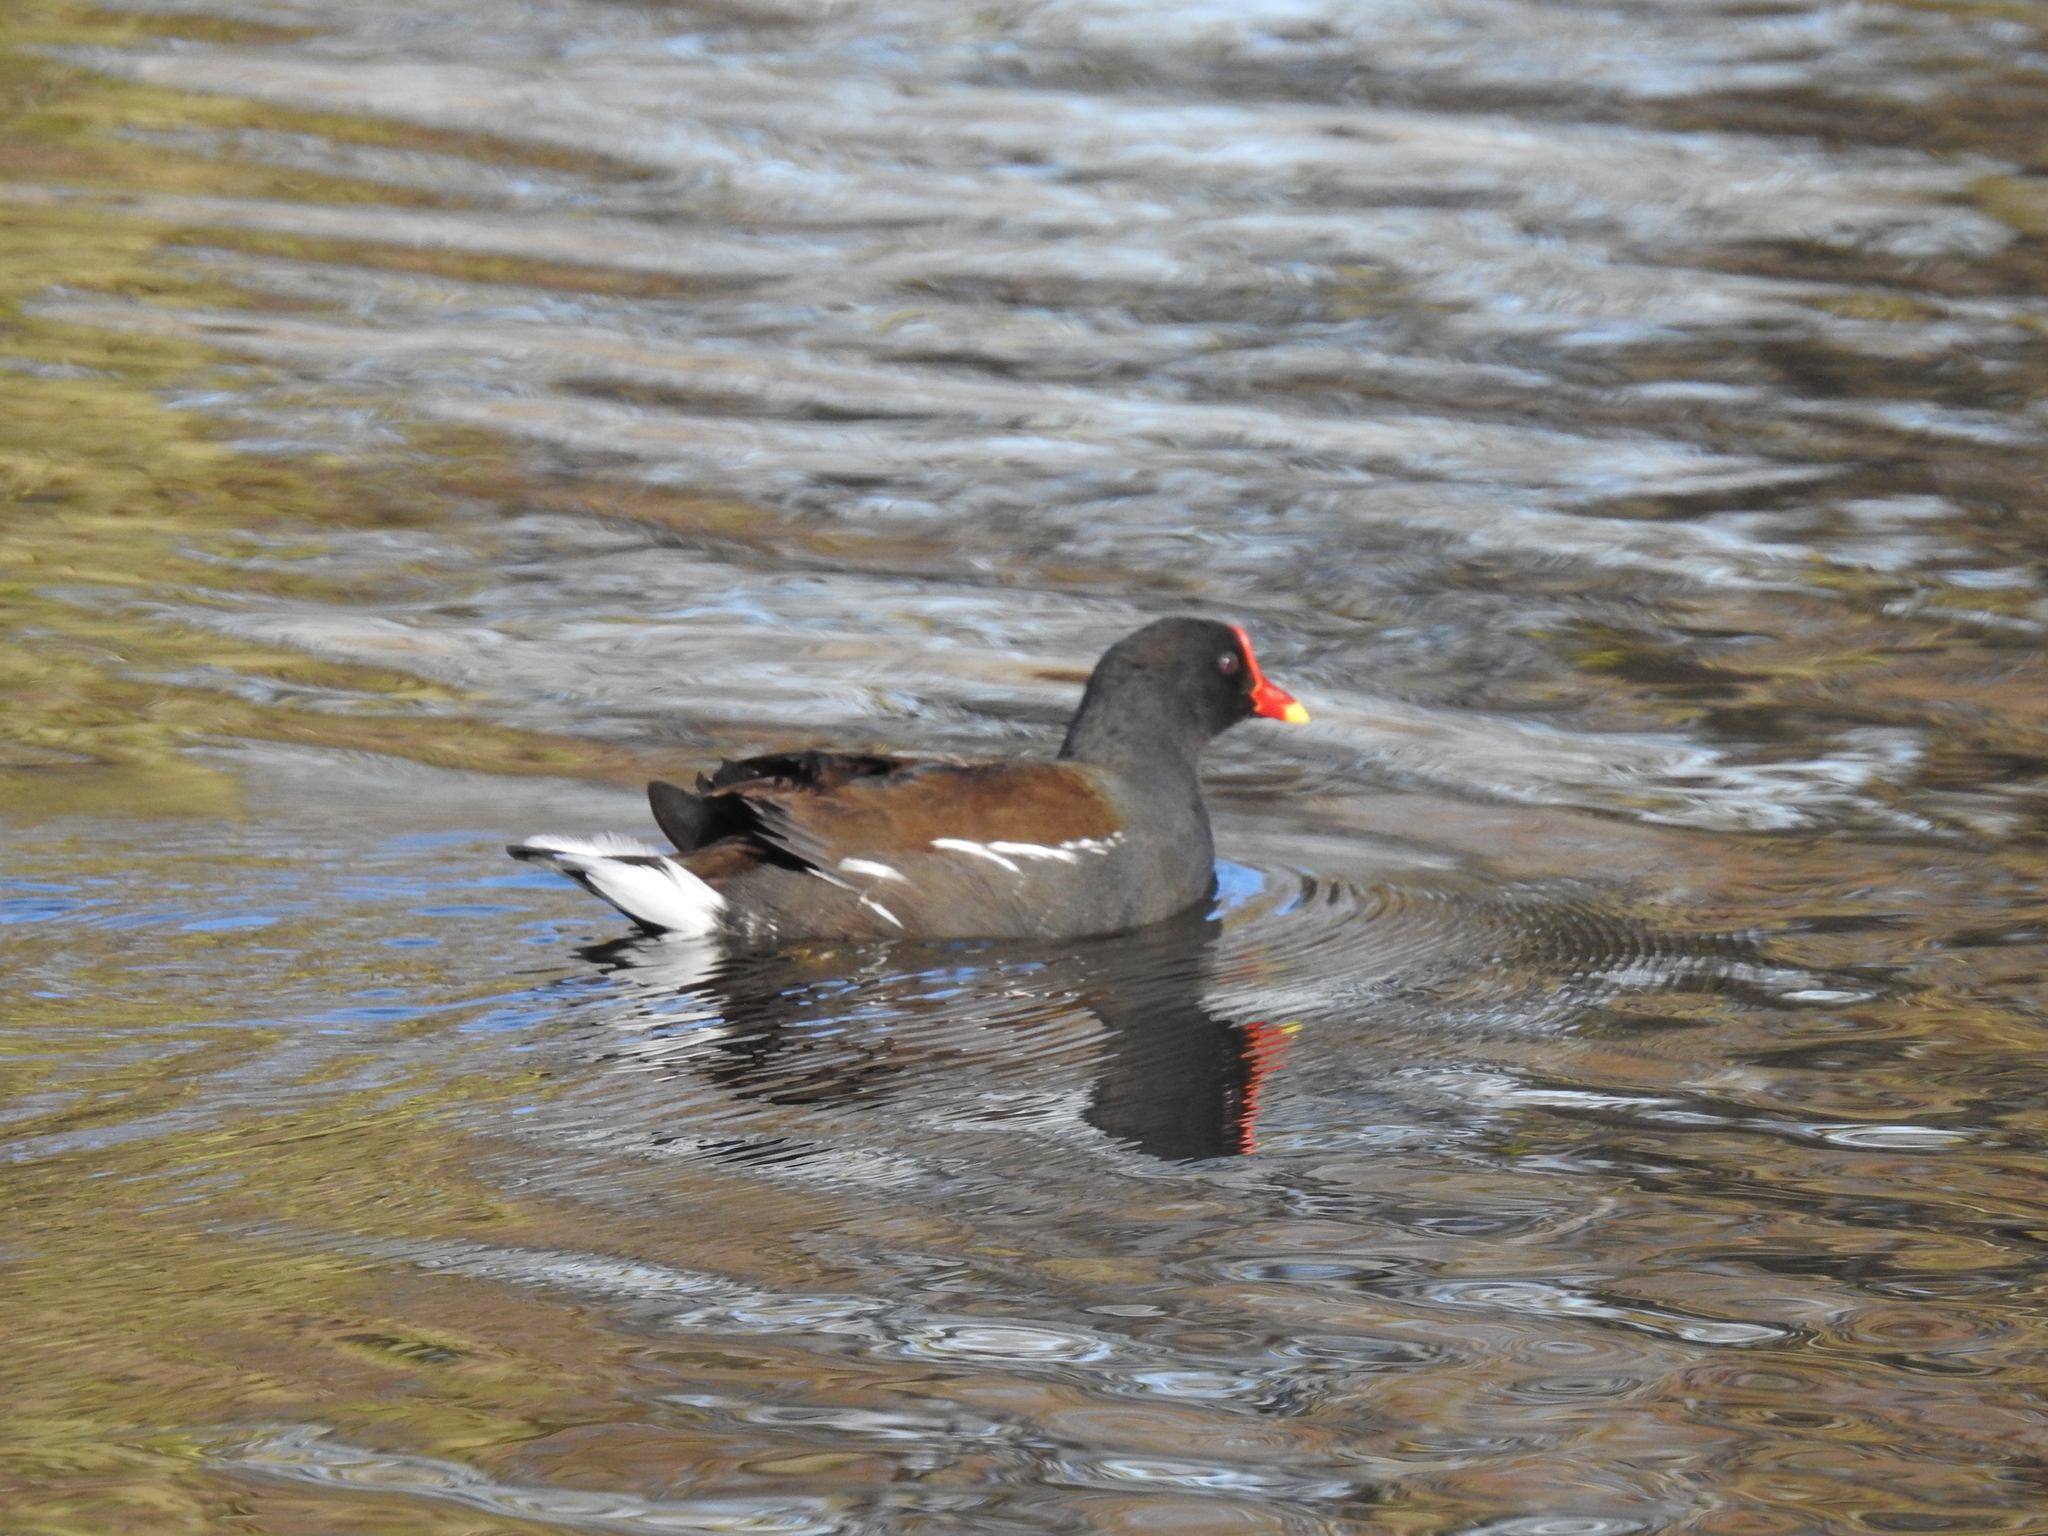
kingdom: Animalia
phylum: Chordata
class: Aves
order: Gruiformes
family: Rallidae
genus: Gallinula
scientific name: Gallinula chloropus
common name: Common moorhen
